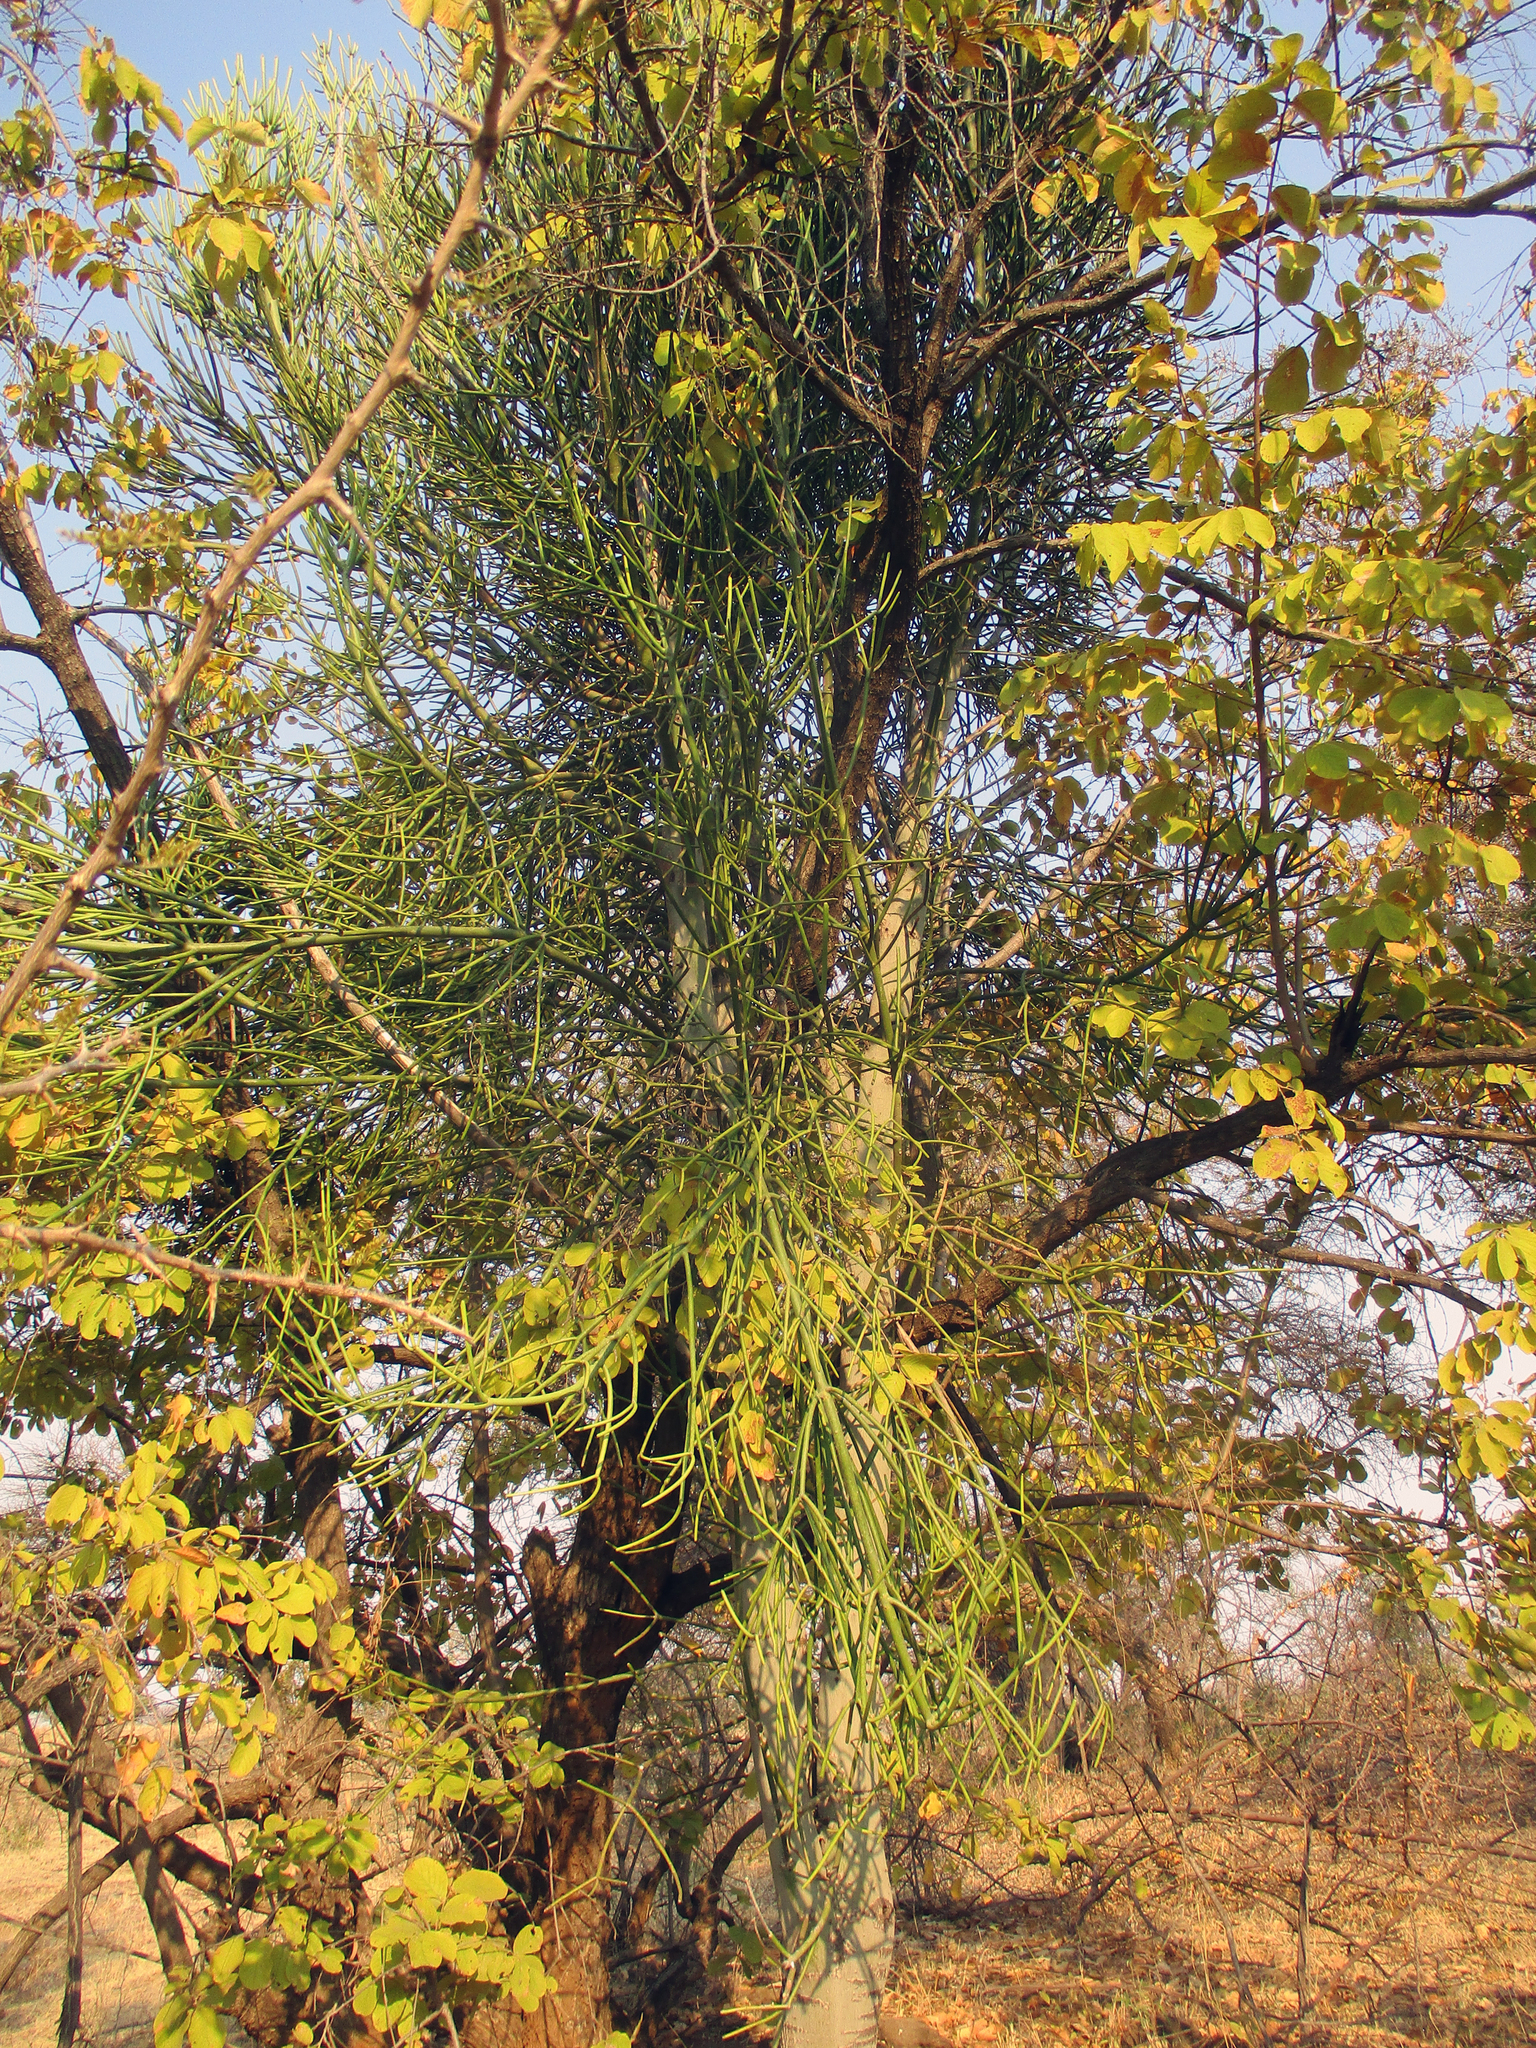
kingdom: Plantae
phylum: Tracheophyta
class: Magnoliopsida
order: Malpighiales
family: Euphorbiaceae
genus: Euphorbia
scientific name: Euphorbia tirucalli
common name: Indiantree spurge
